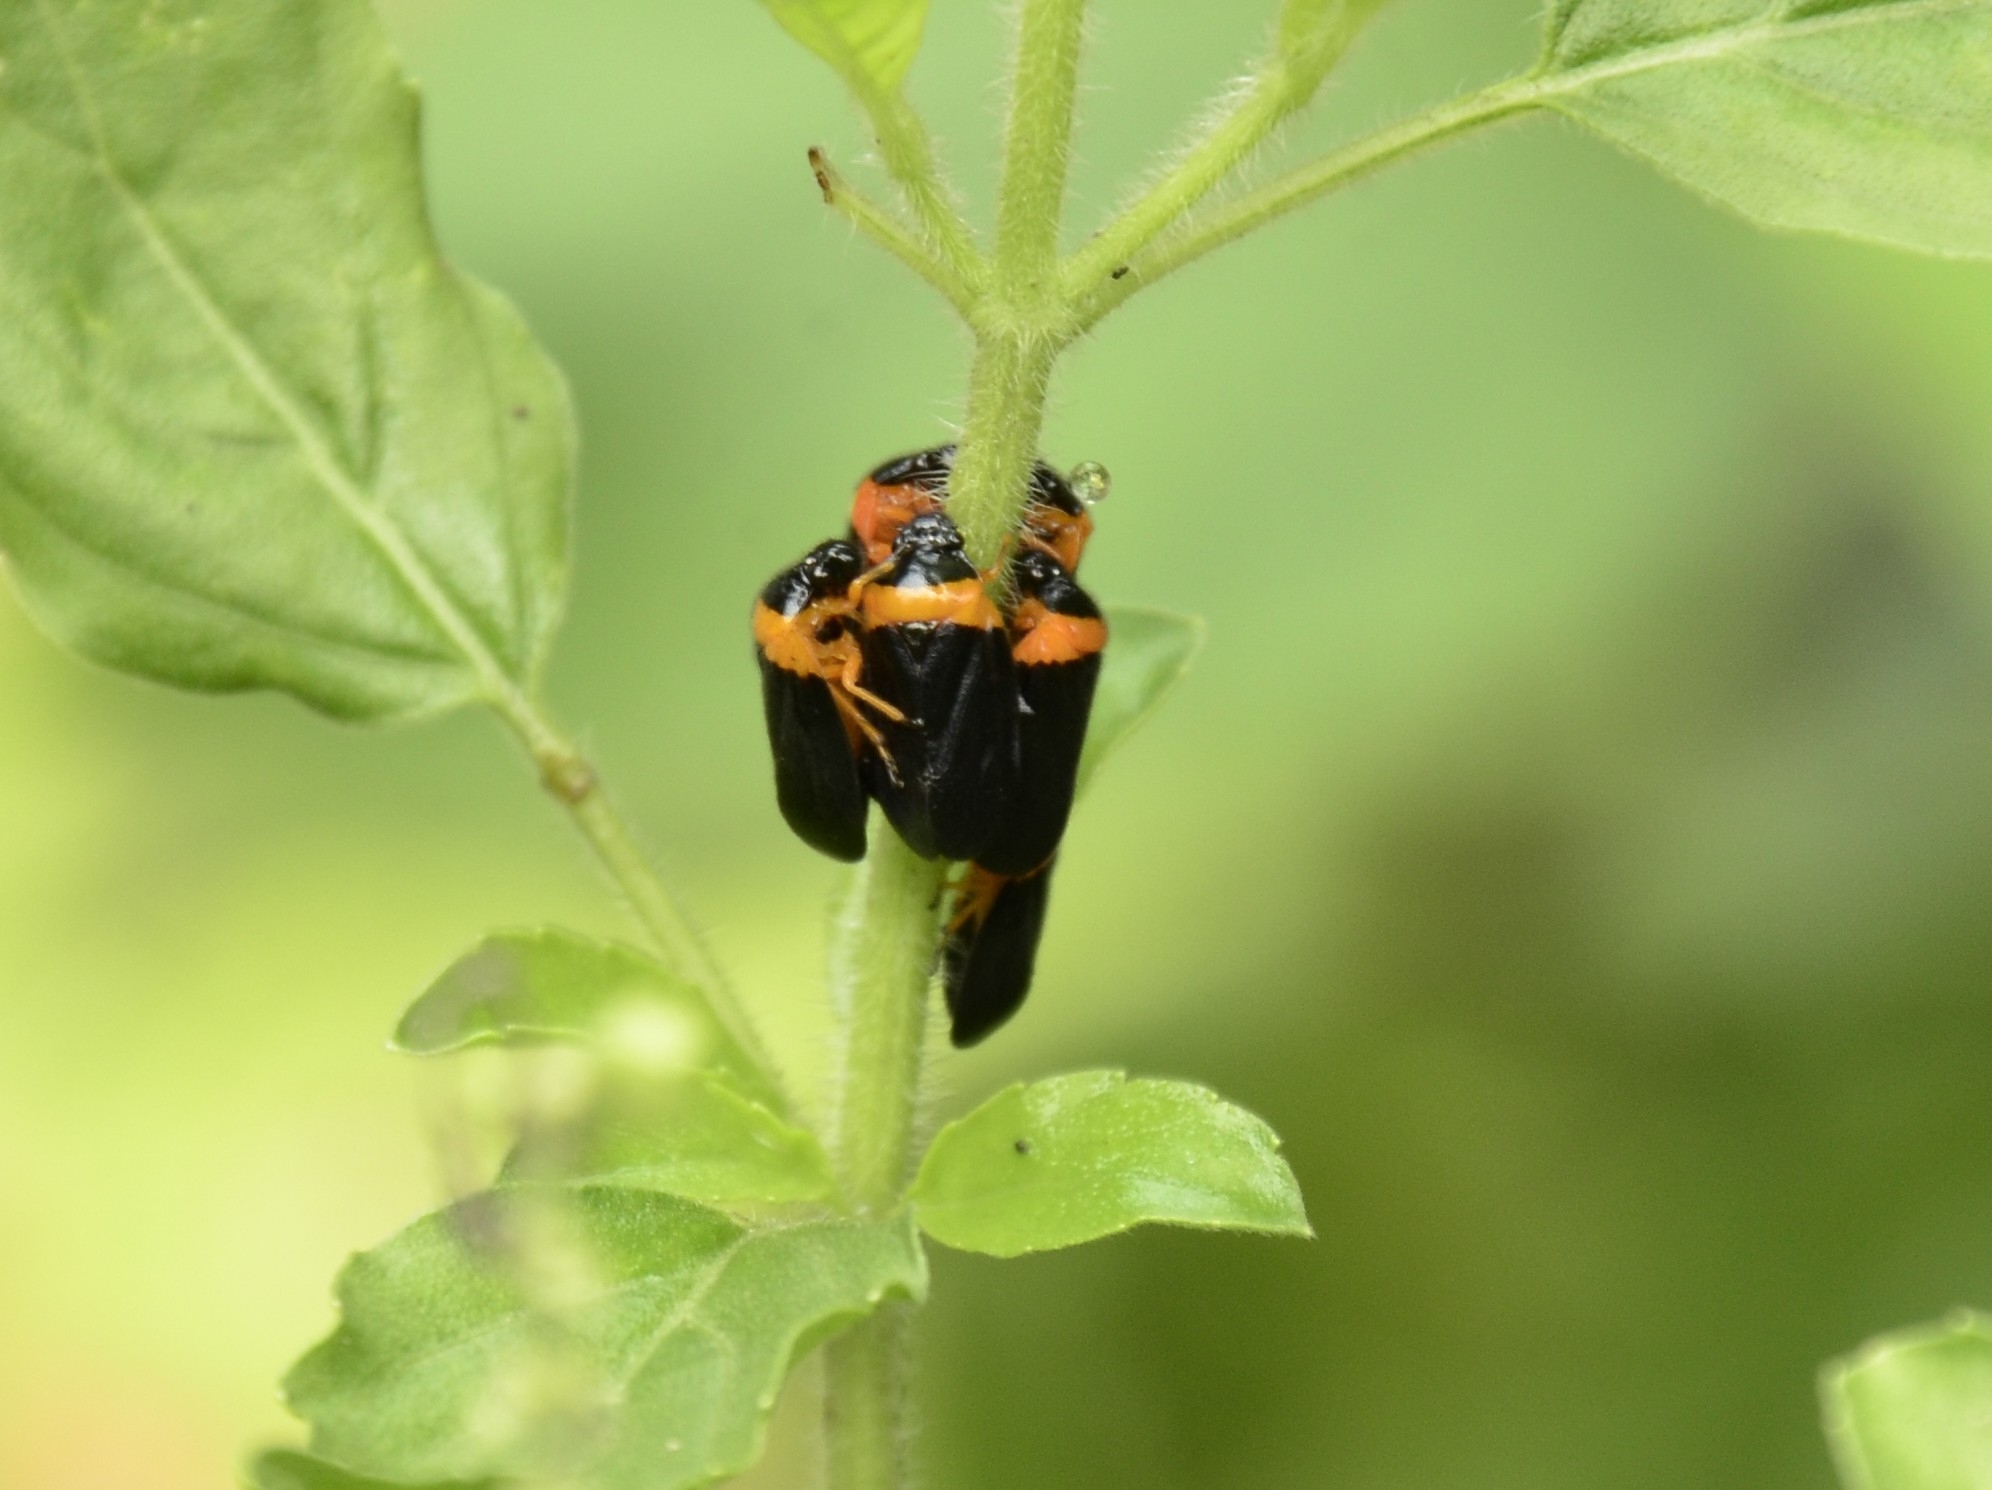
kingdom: Animalia
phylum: Arthropoda
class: Insecta
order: Hemiptera
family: Cercopidae
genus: Phymatostetha
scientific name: Phymatostetha deschampsi
